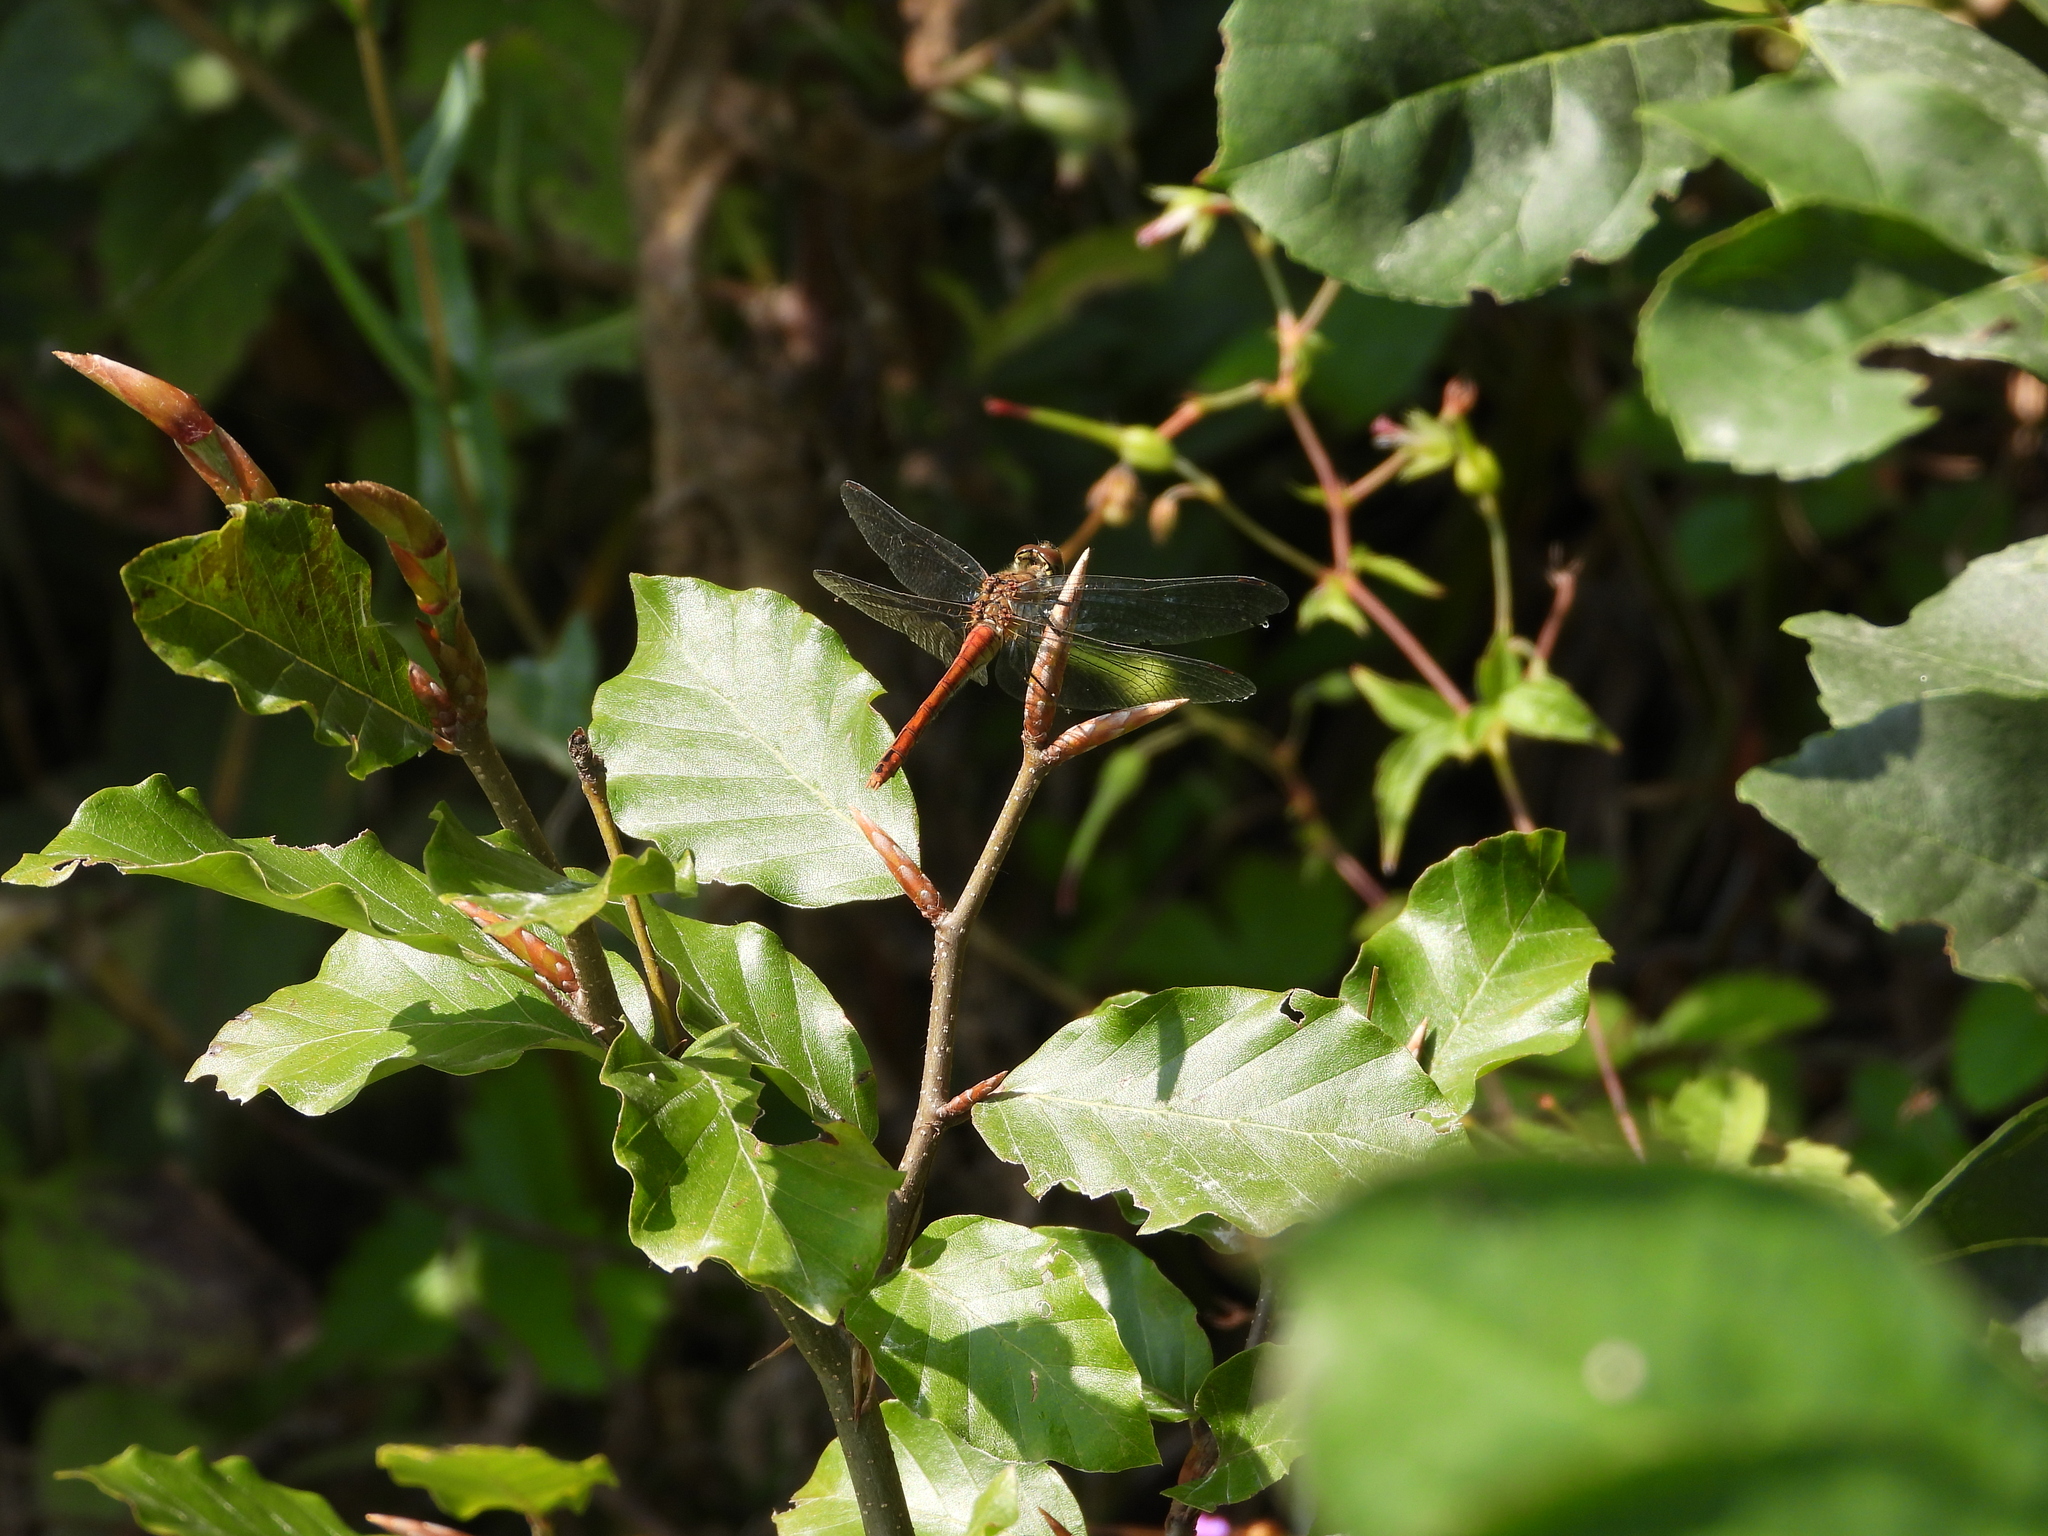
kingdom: Animalia
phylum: Arthropoda
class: Insecta
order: Odonata
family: Libellulidae
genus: Sympetrum
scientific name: Sympetrum sanguineum
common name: Ruddy darter
